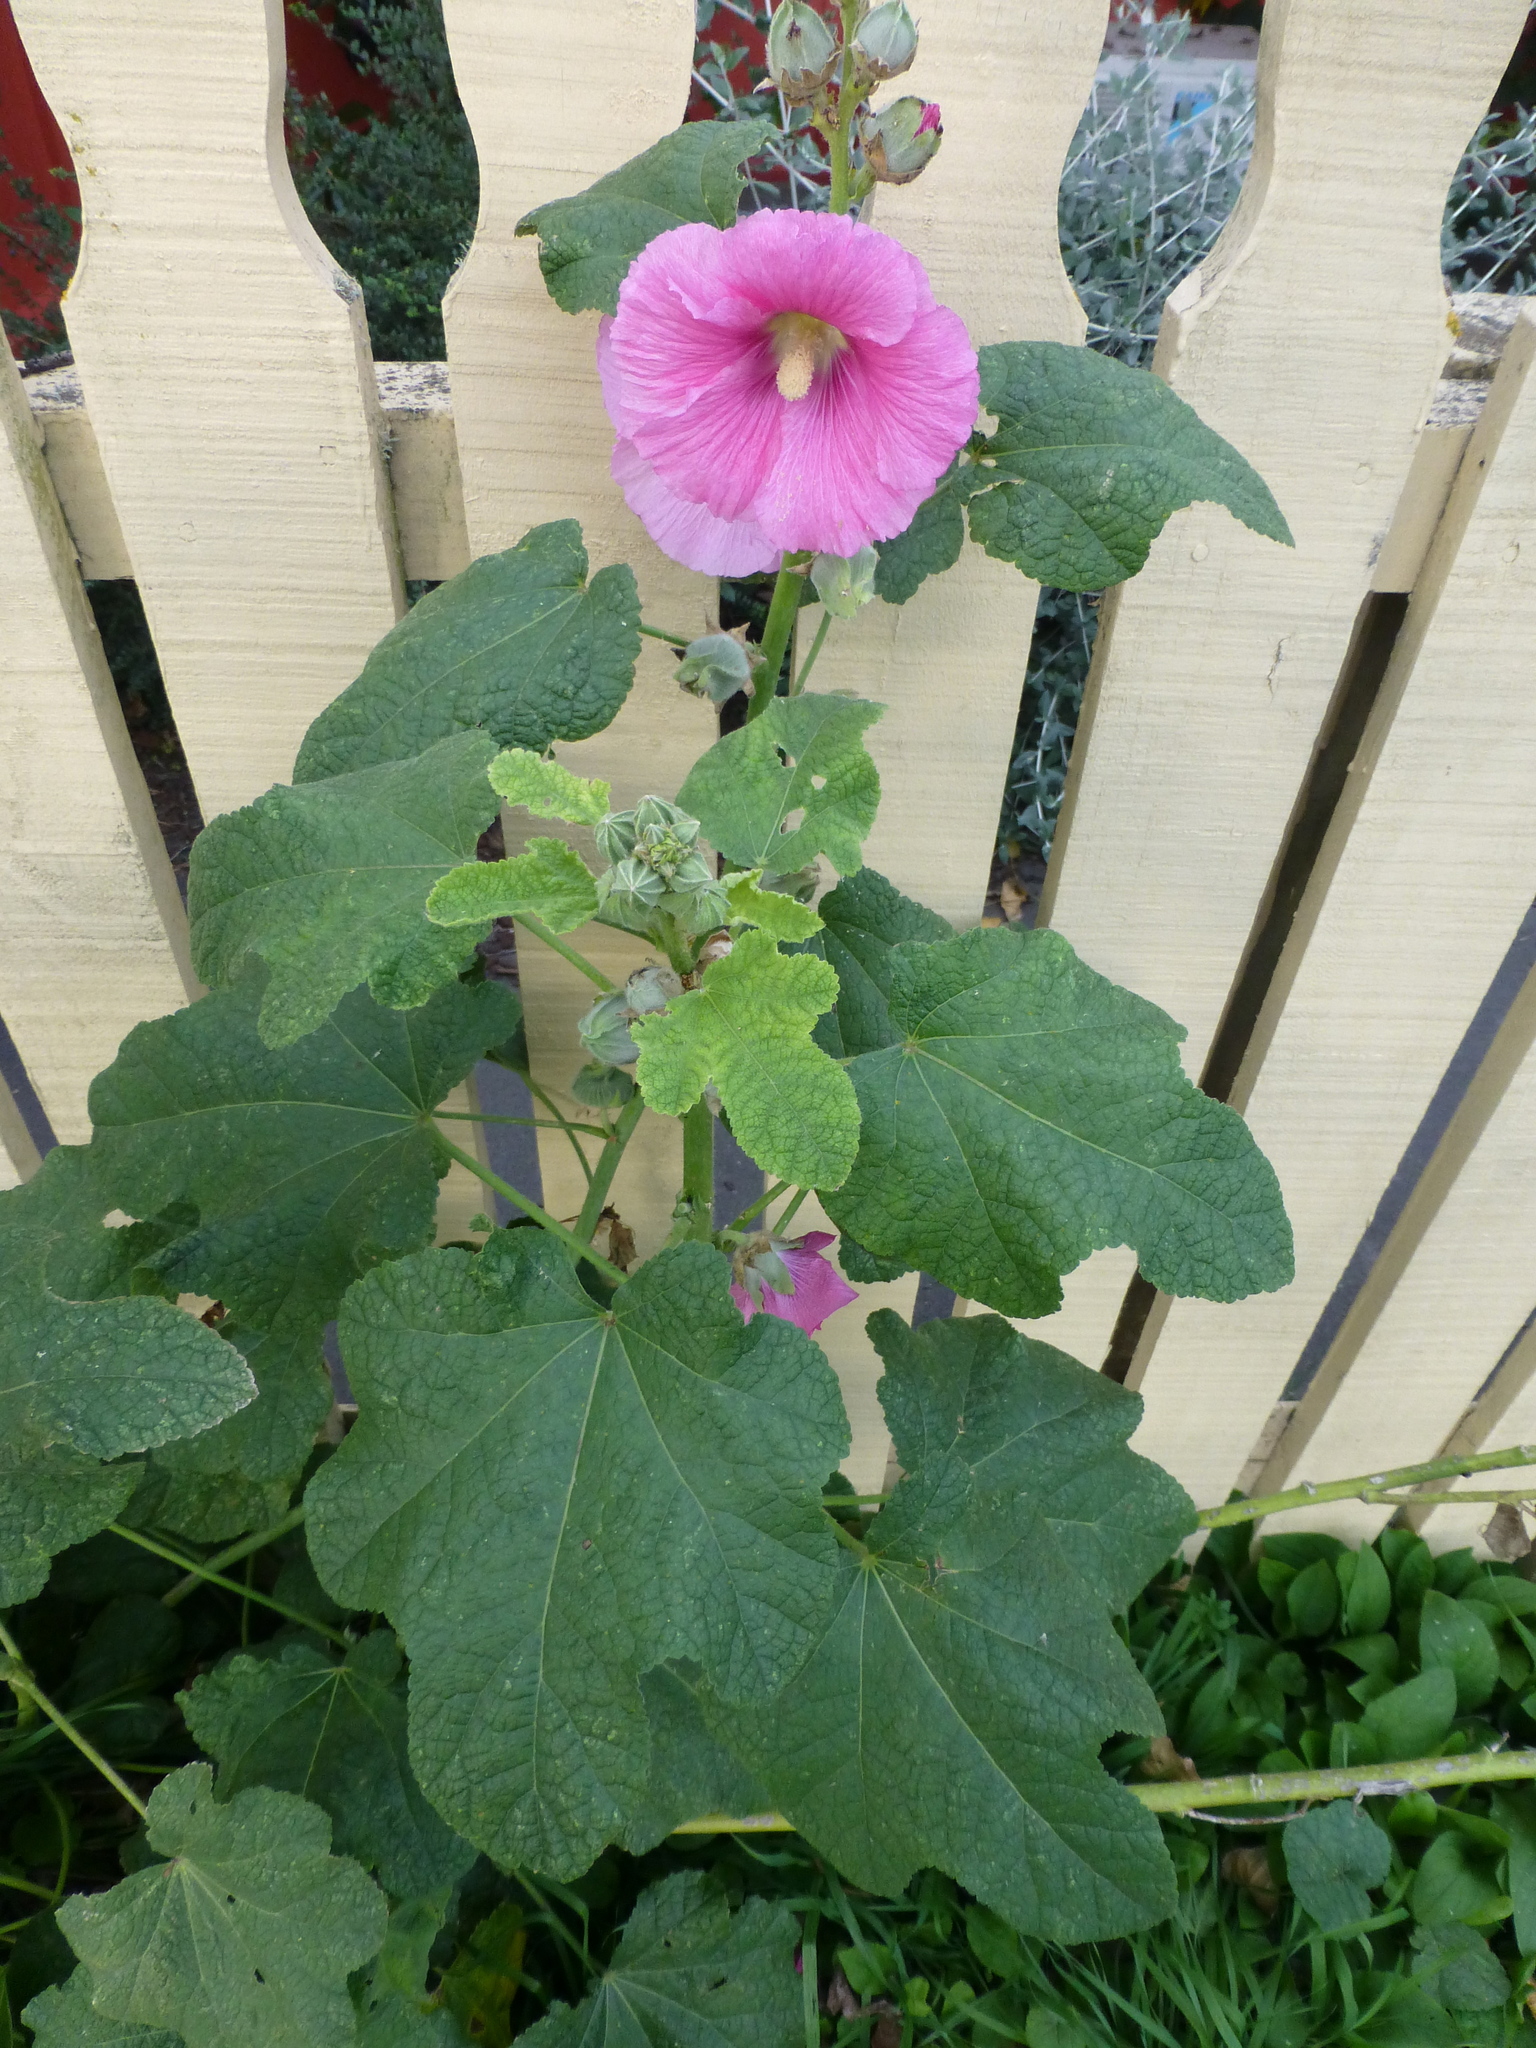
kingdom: Plantae
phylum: Tracheophyta
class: Magnoliopsida
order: Malvales
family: Malvaceae
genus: Alcea
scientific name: Alcea rosea
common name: Hollyhock
